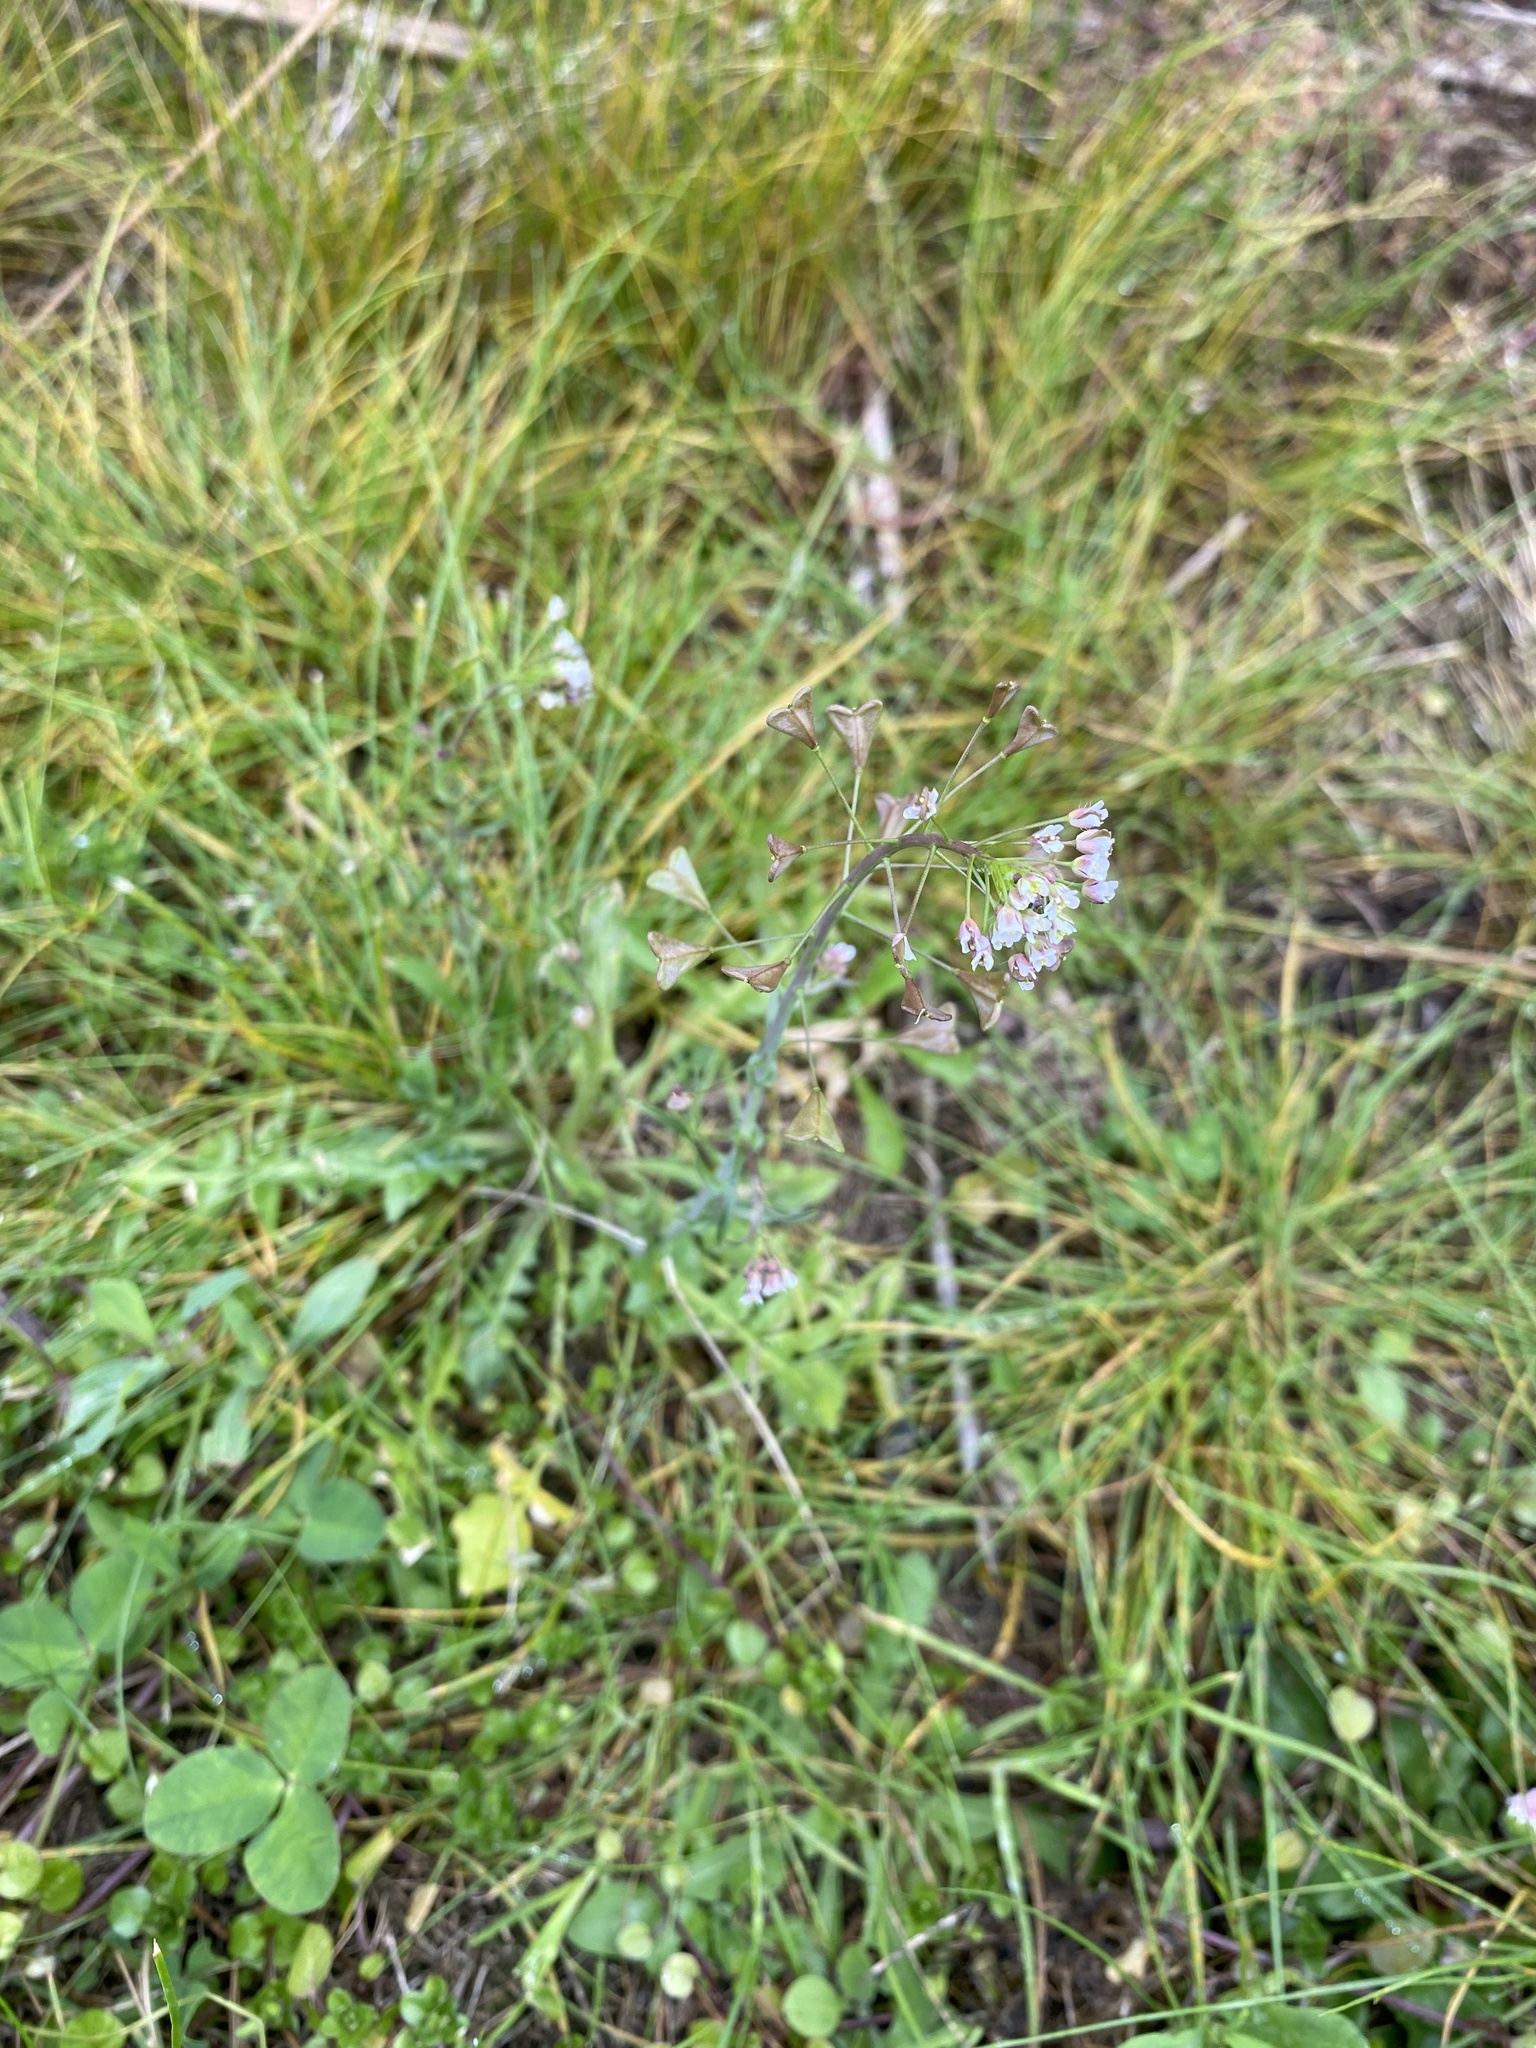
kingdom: Plantae
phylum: Tracheophyta
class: Magnoliopsida
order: Brassicales
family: Brassicaceae
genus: Capsella
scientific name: Capsella bursa-pastoris
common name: Shepherd's purse
